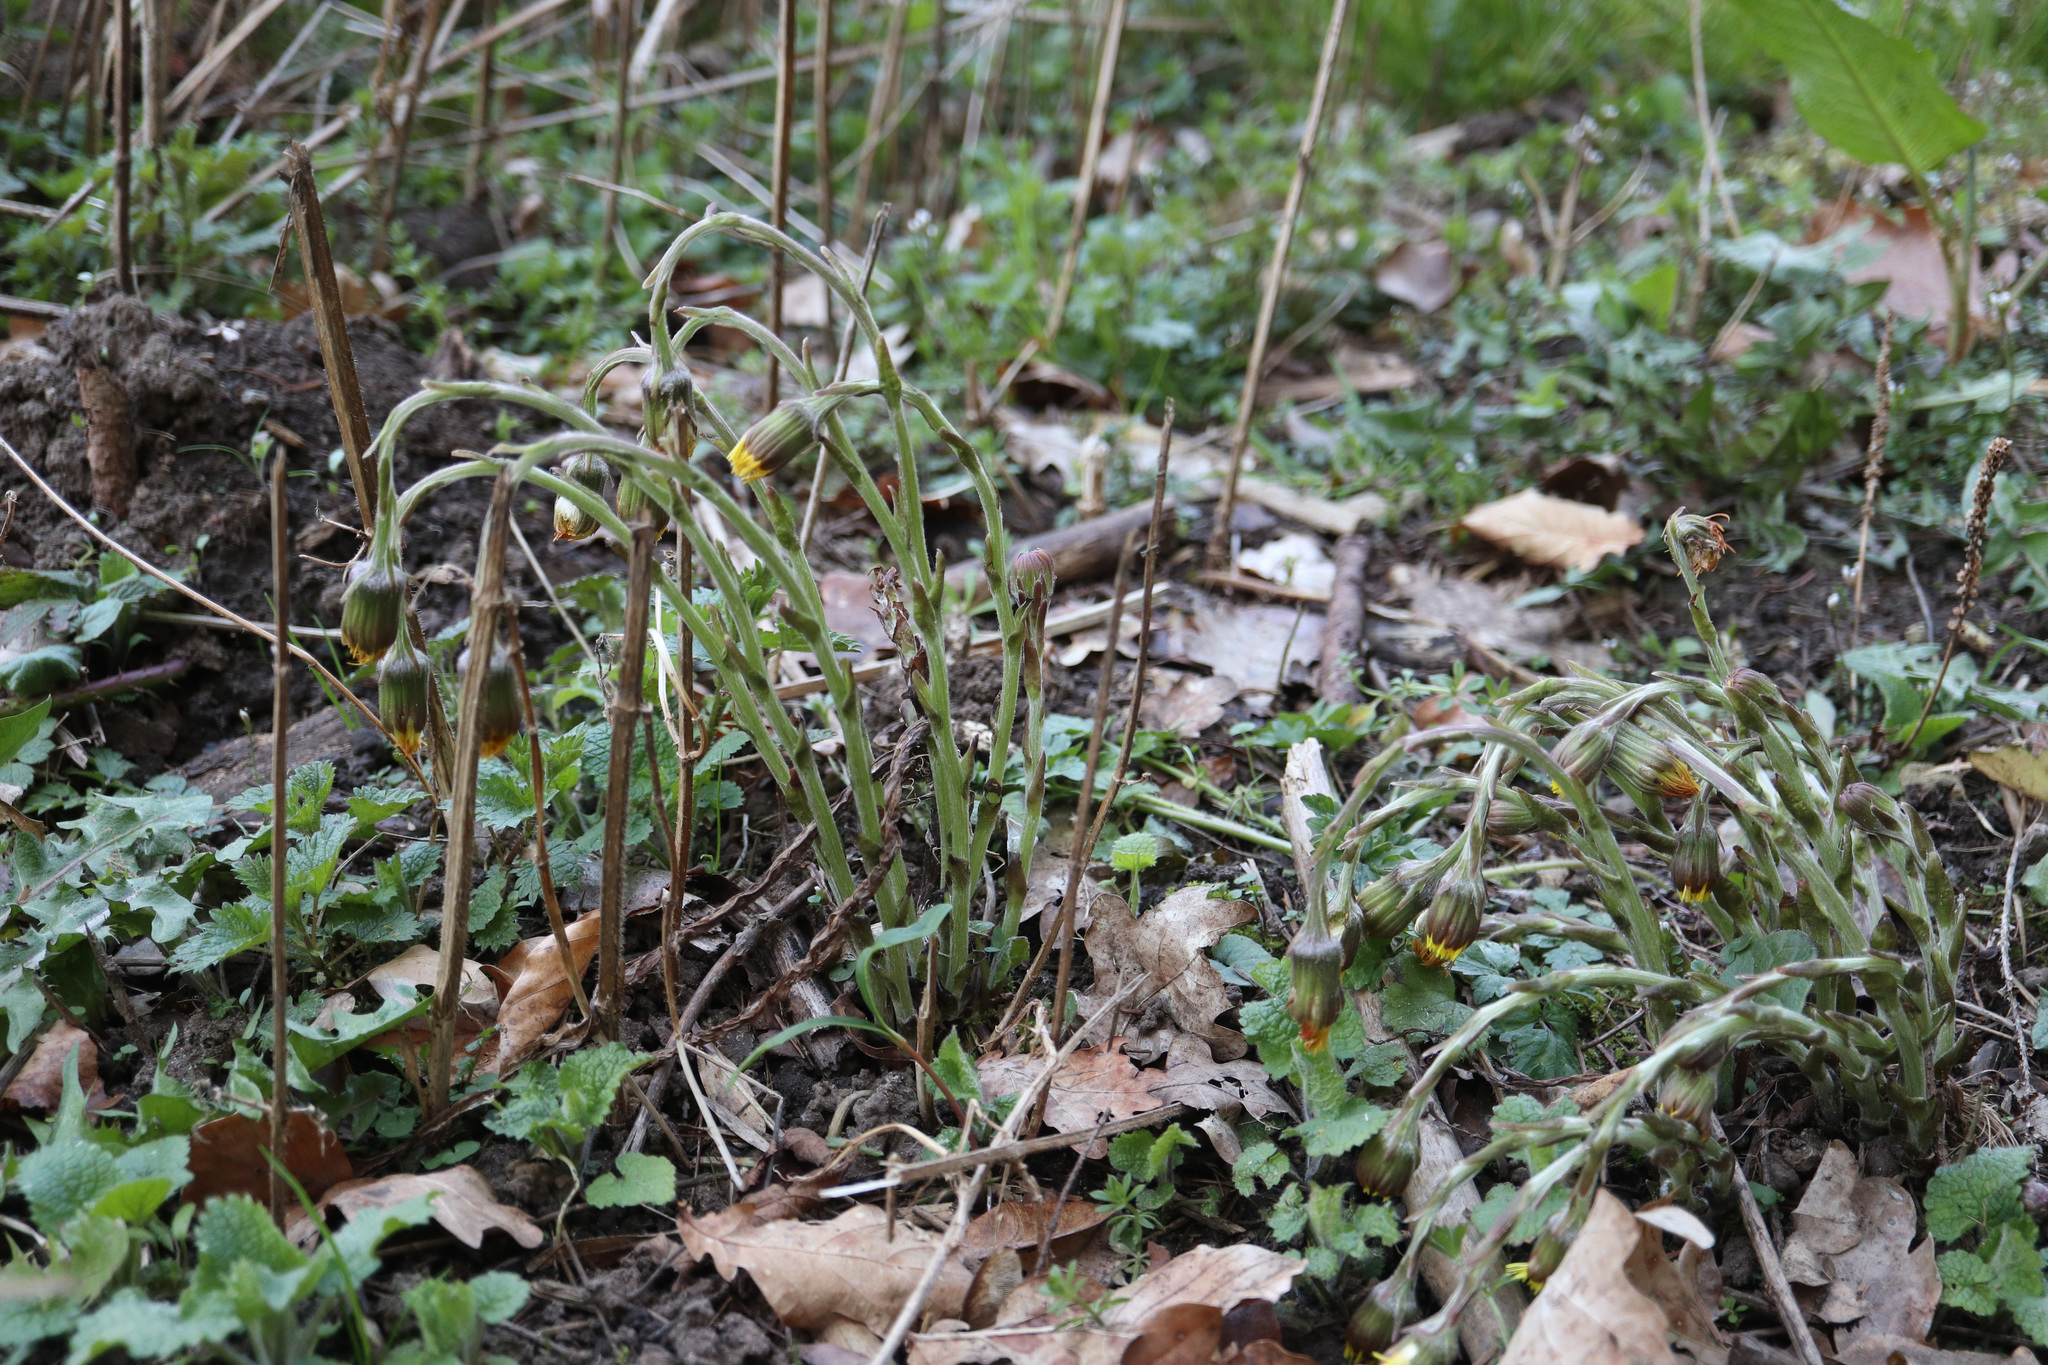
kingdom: Plantae
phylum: Tracheophyta
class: Magnoliopsida
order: Asterales
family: Asteraceae
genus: Tussilago
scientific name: Tussilago farfara
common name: Coltsfoot
